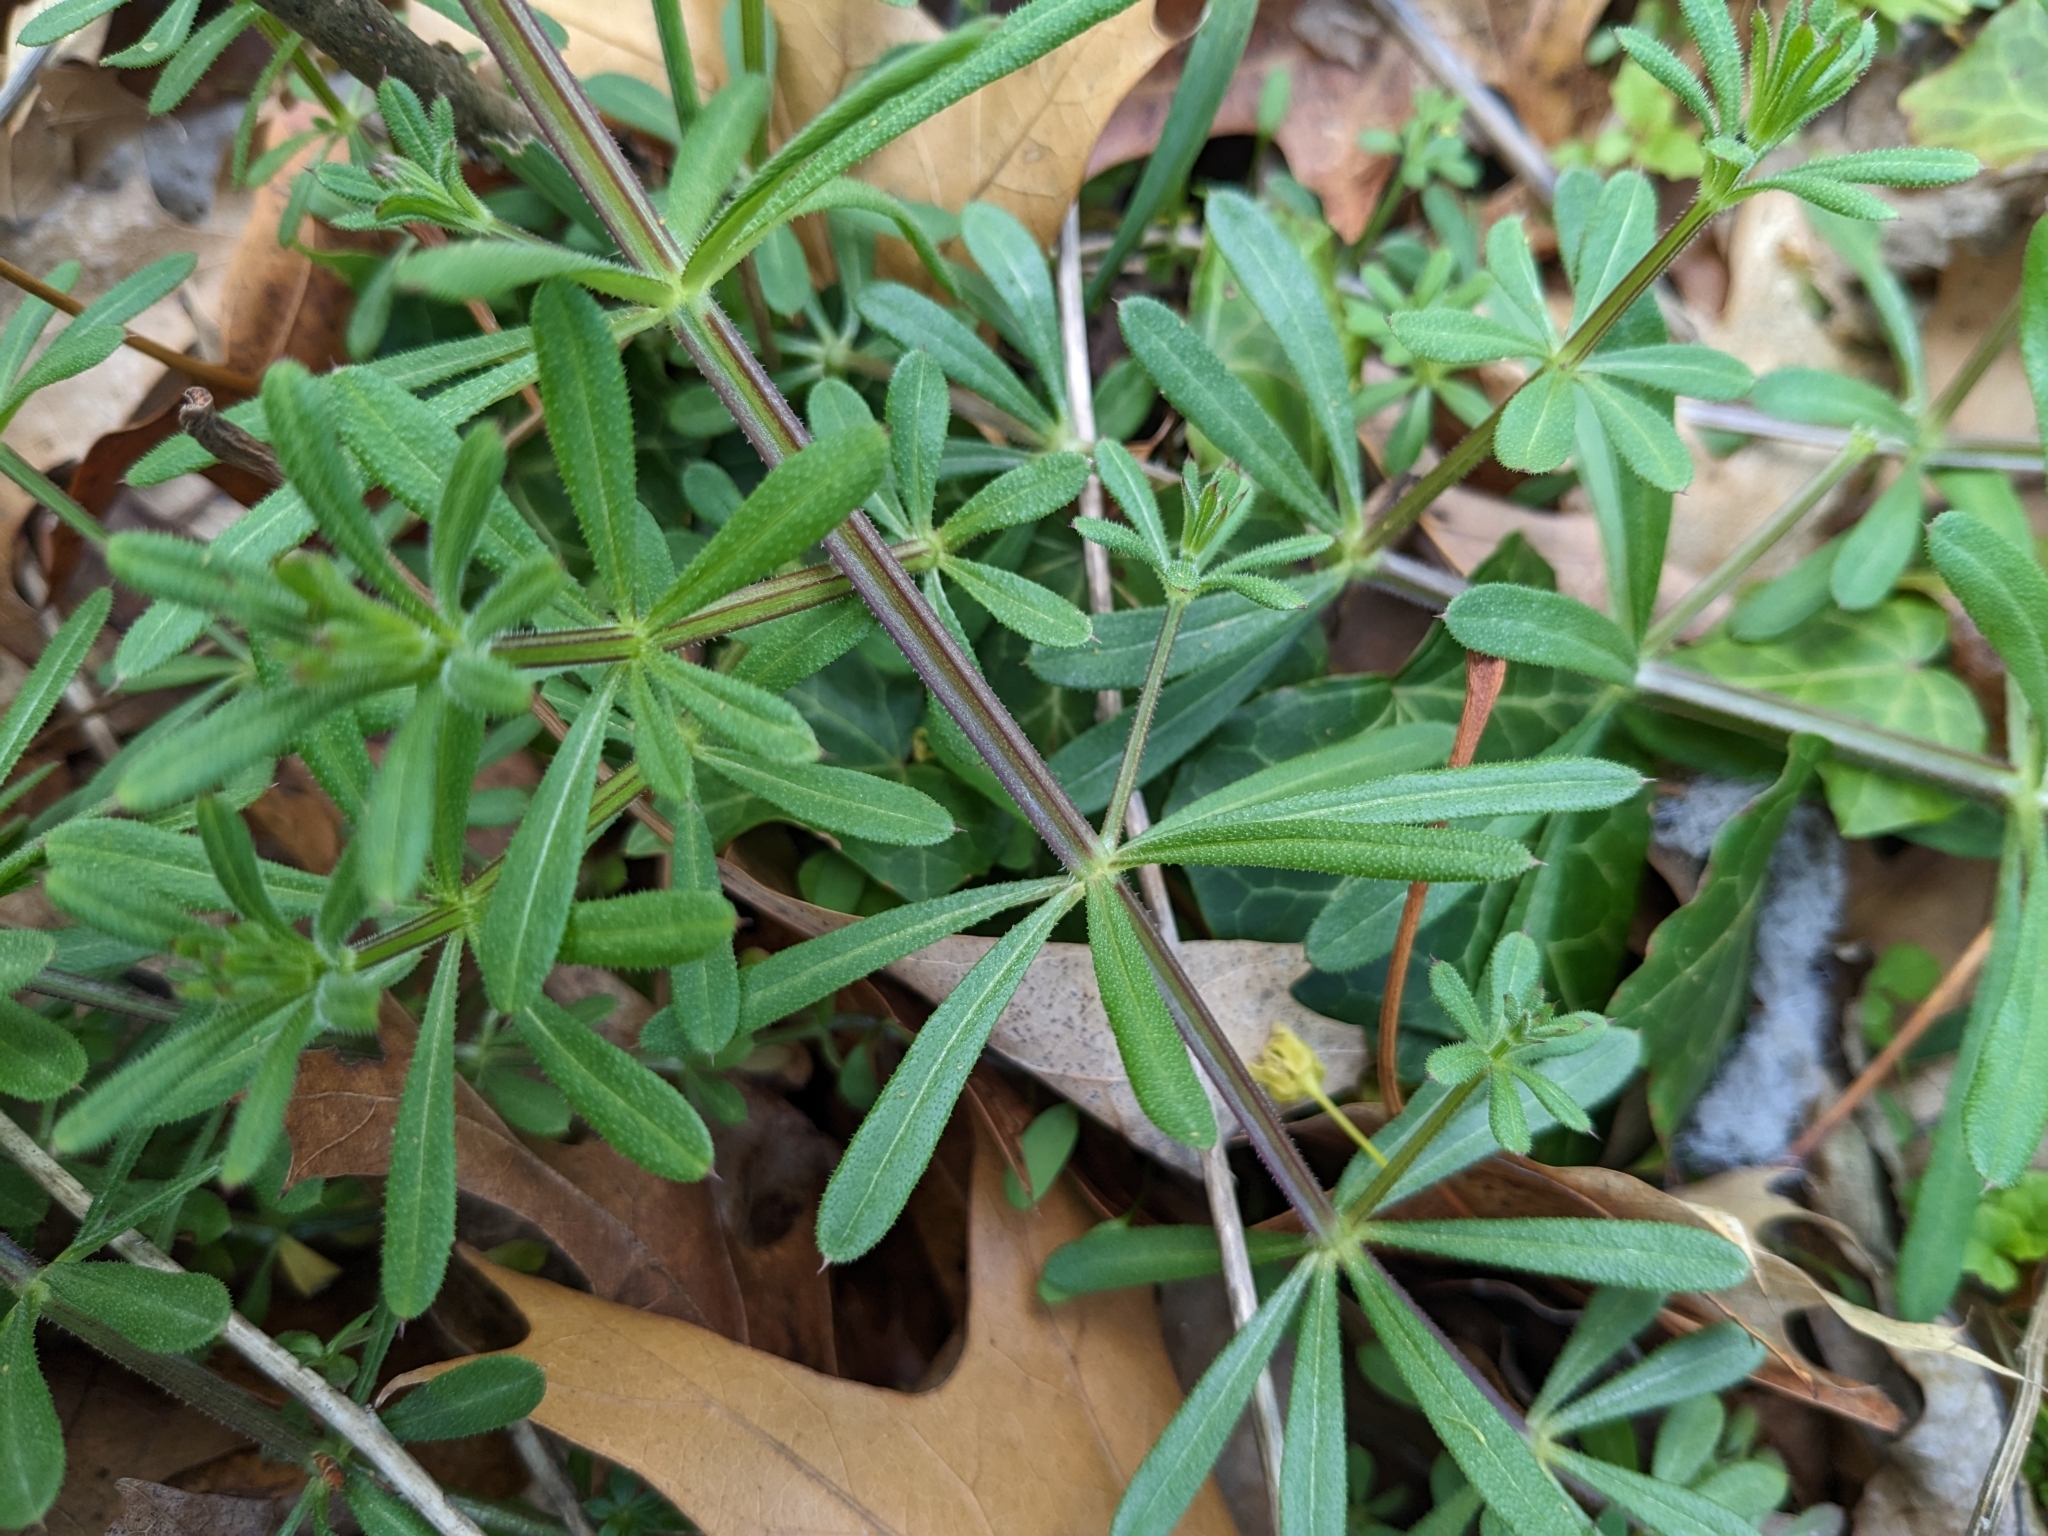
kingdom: Plantae
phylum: Tracheophyta
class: Magnoliopsida
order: Gentianales
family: Rubiaceae
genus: Galium
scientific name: Galium aparine
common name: Cleavers
